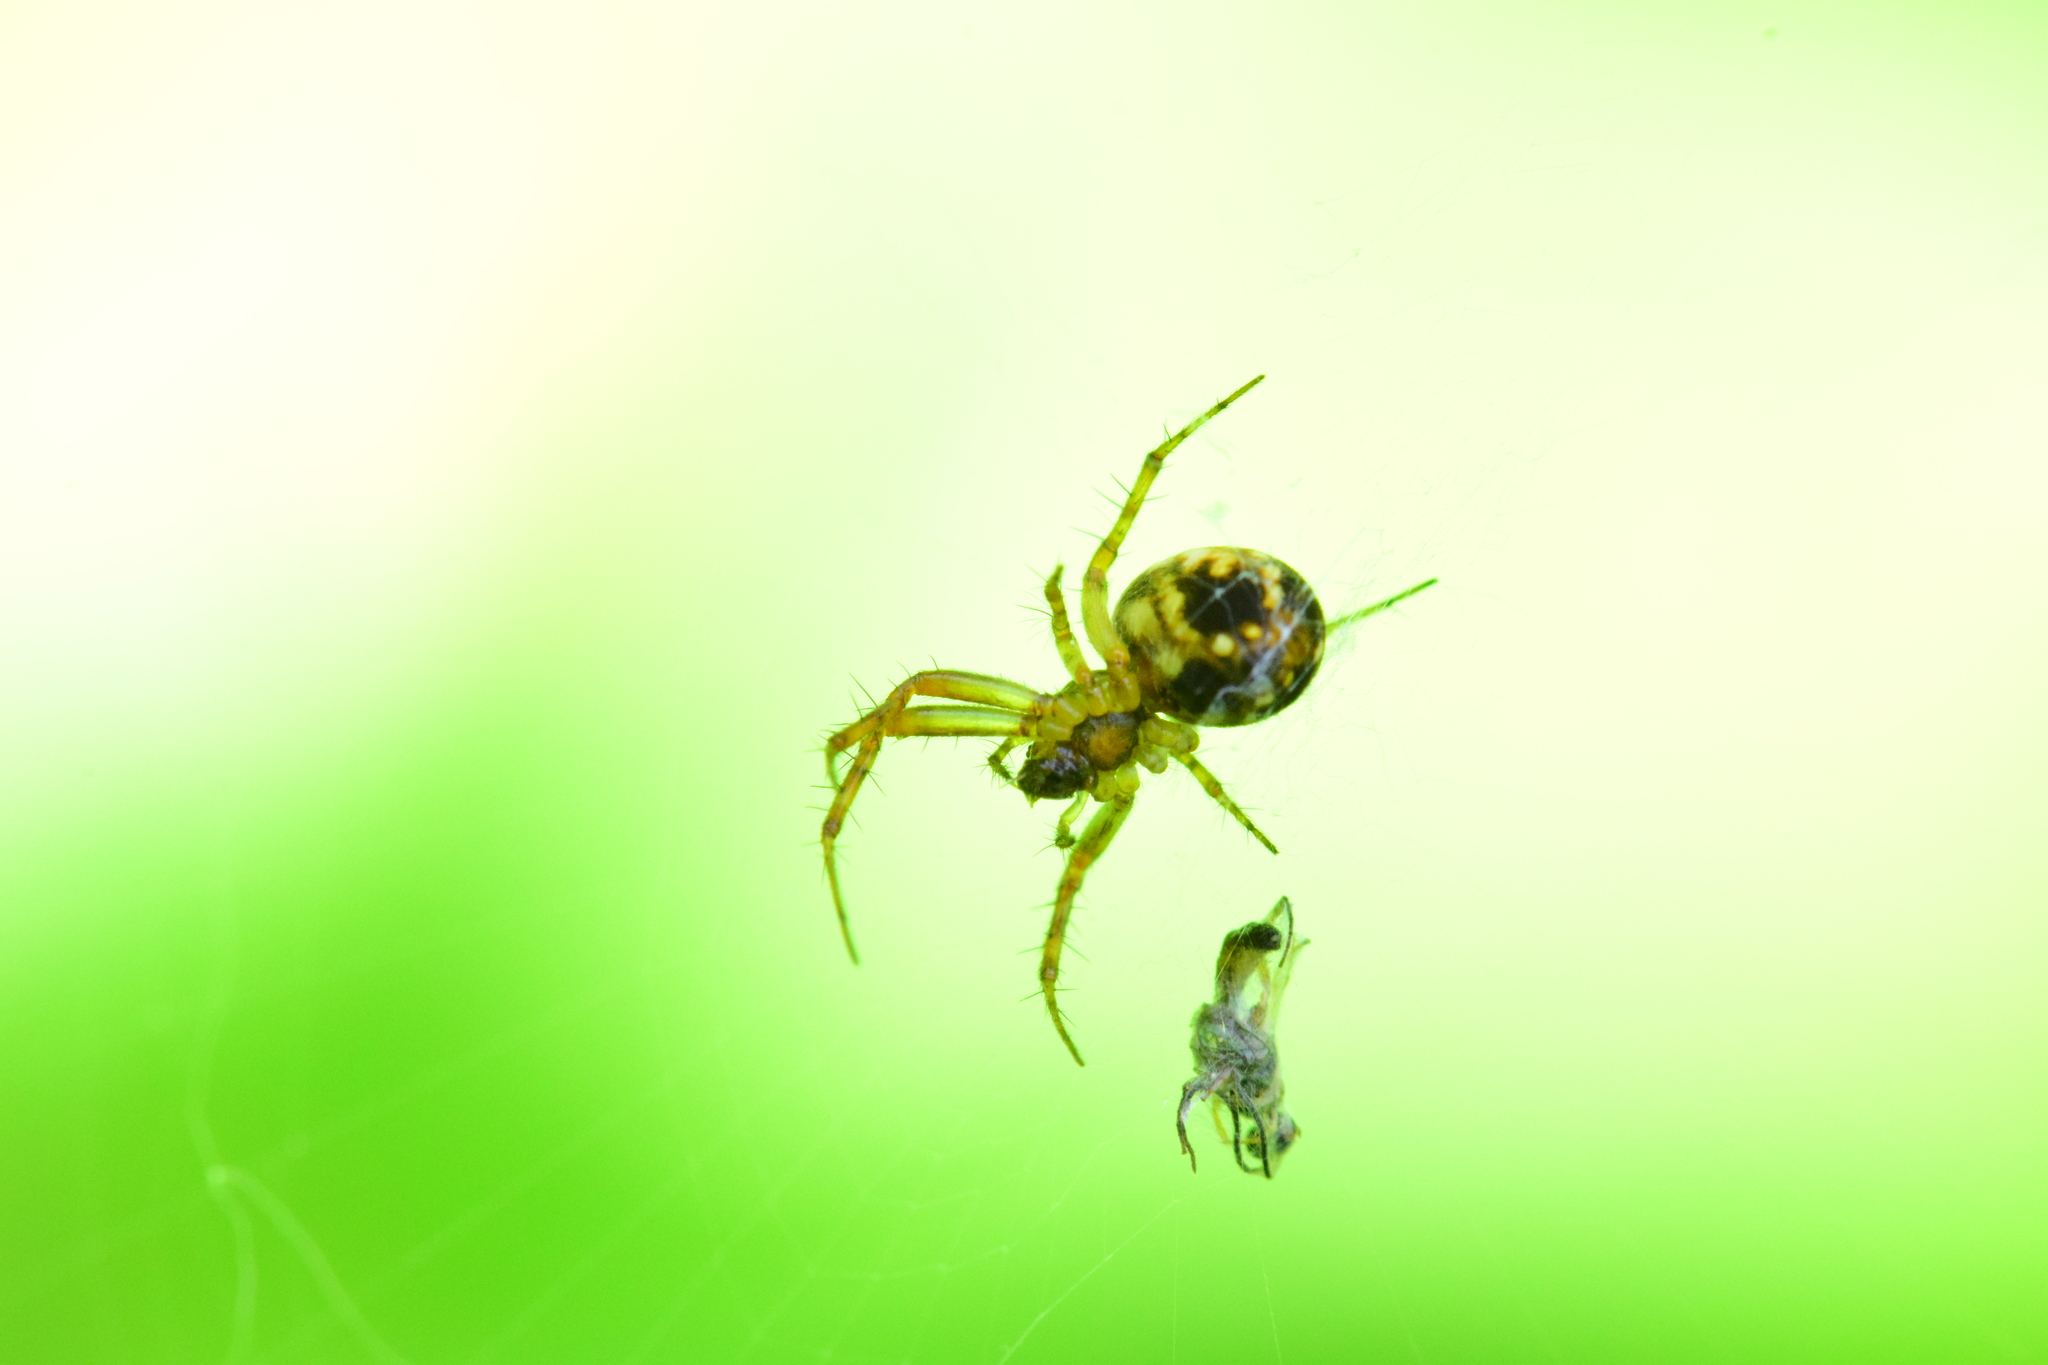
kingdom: Animalia
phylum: Arthropoda
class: Arachnida
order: Araneae
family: Araneidae
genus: Mangora
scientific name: Mangora placida
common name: Tuft-legged orbweaver
